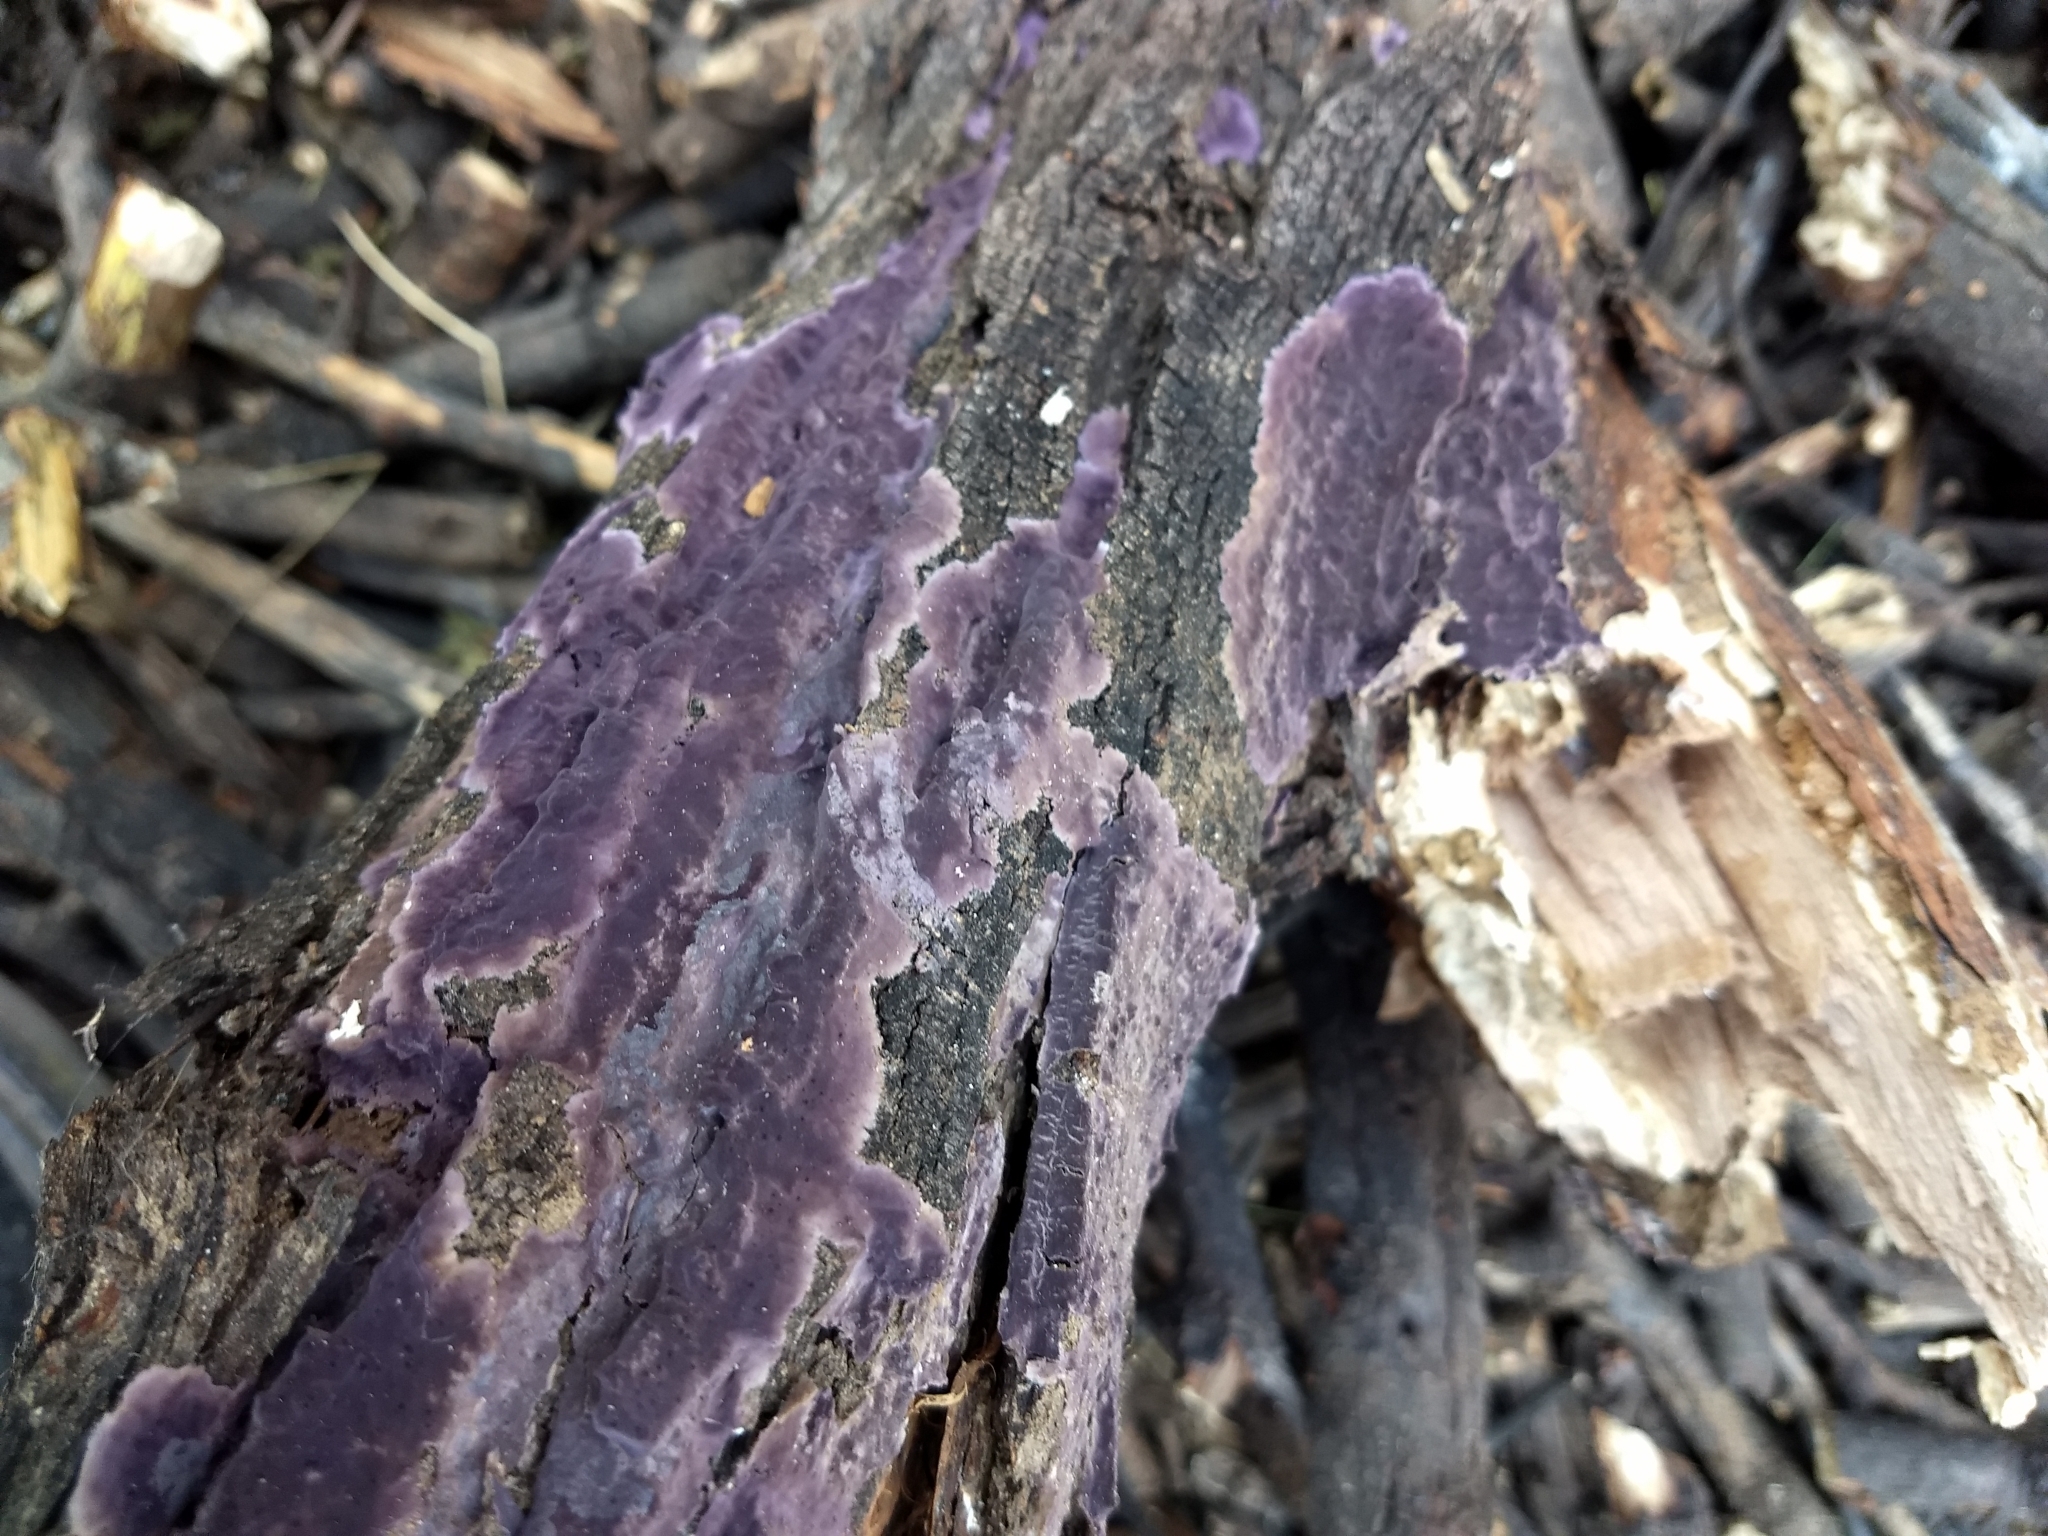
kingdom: Fungi
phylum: Basidiomycota
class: Agaricomycetes
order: Corticiales
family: Punctulariaceae
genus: Punctularia
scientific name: Punctularia atropurpurascens
